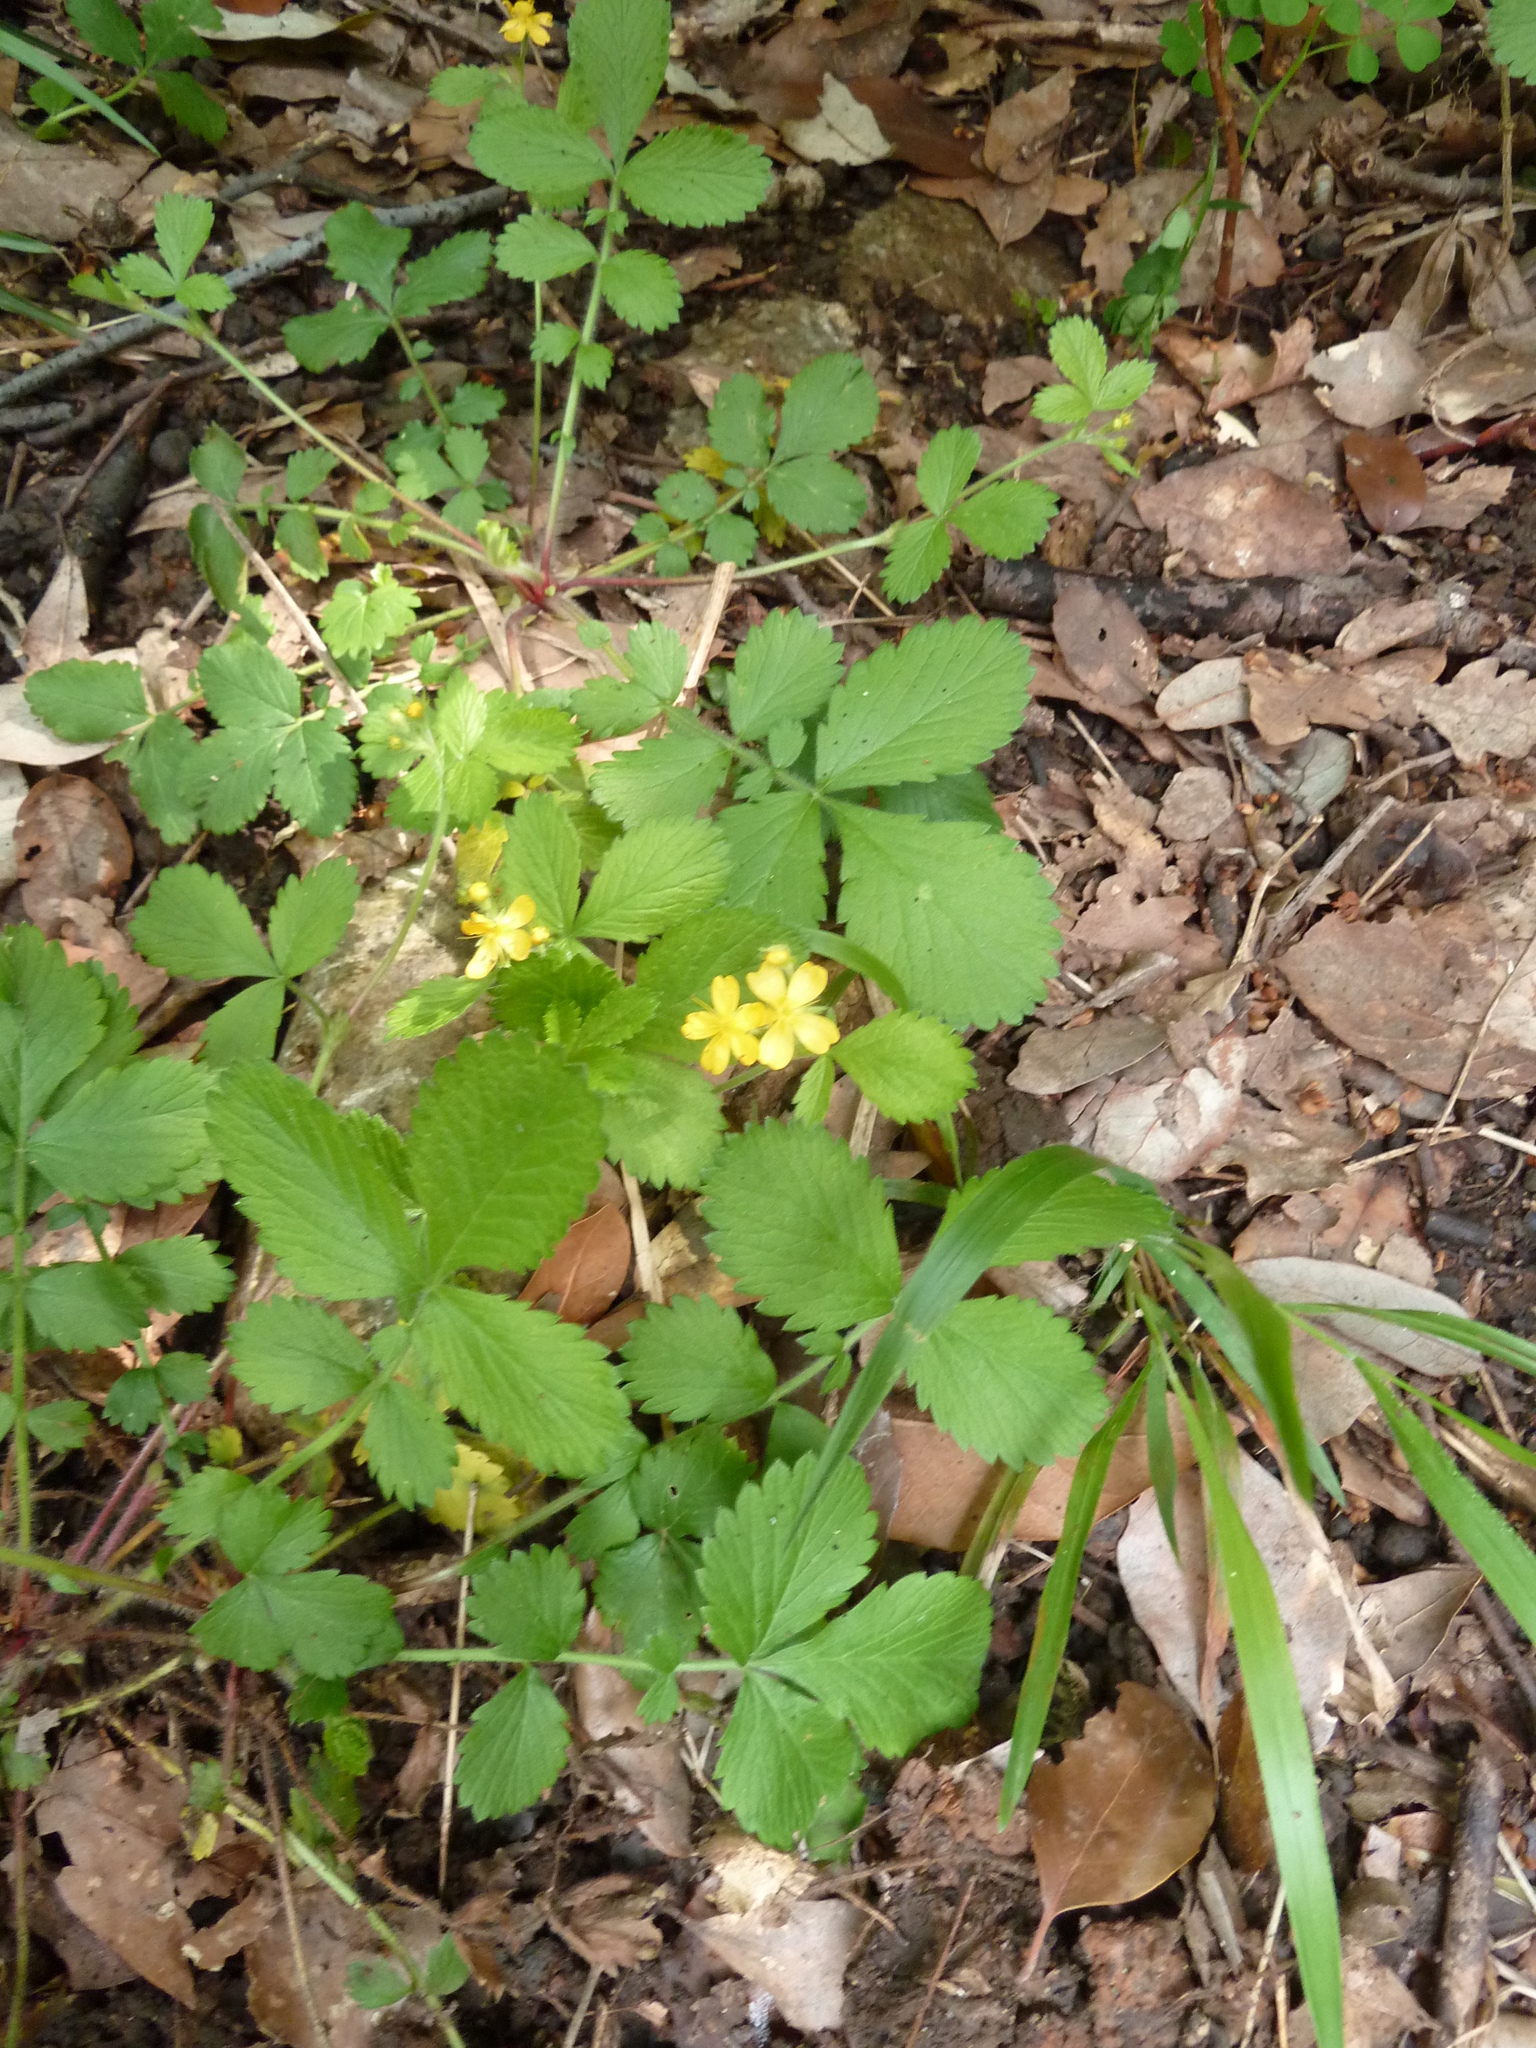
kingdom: Plantae
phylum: Tracheophyta
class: Magnoliopsida
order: Rosales
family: Rosaceae
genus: Aremonia
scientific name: Aremonia agrimonoides
